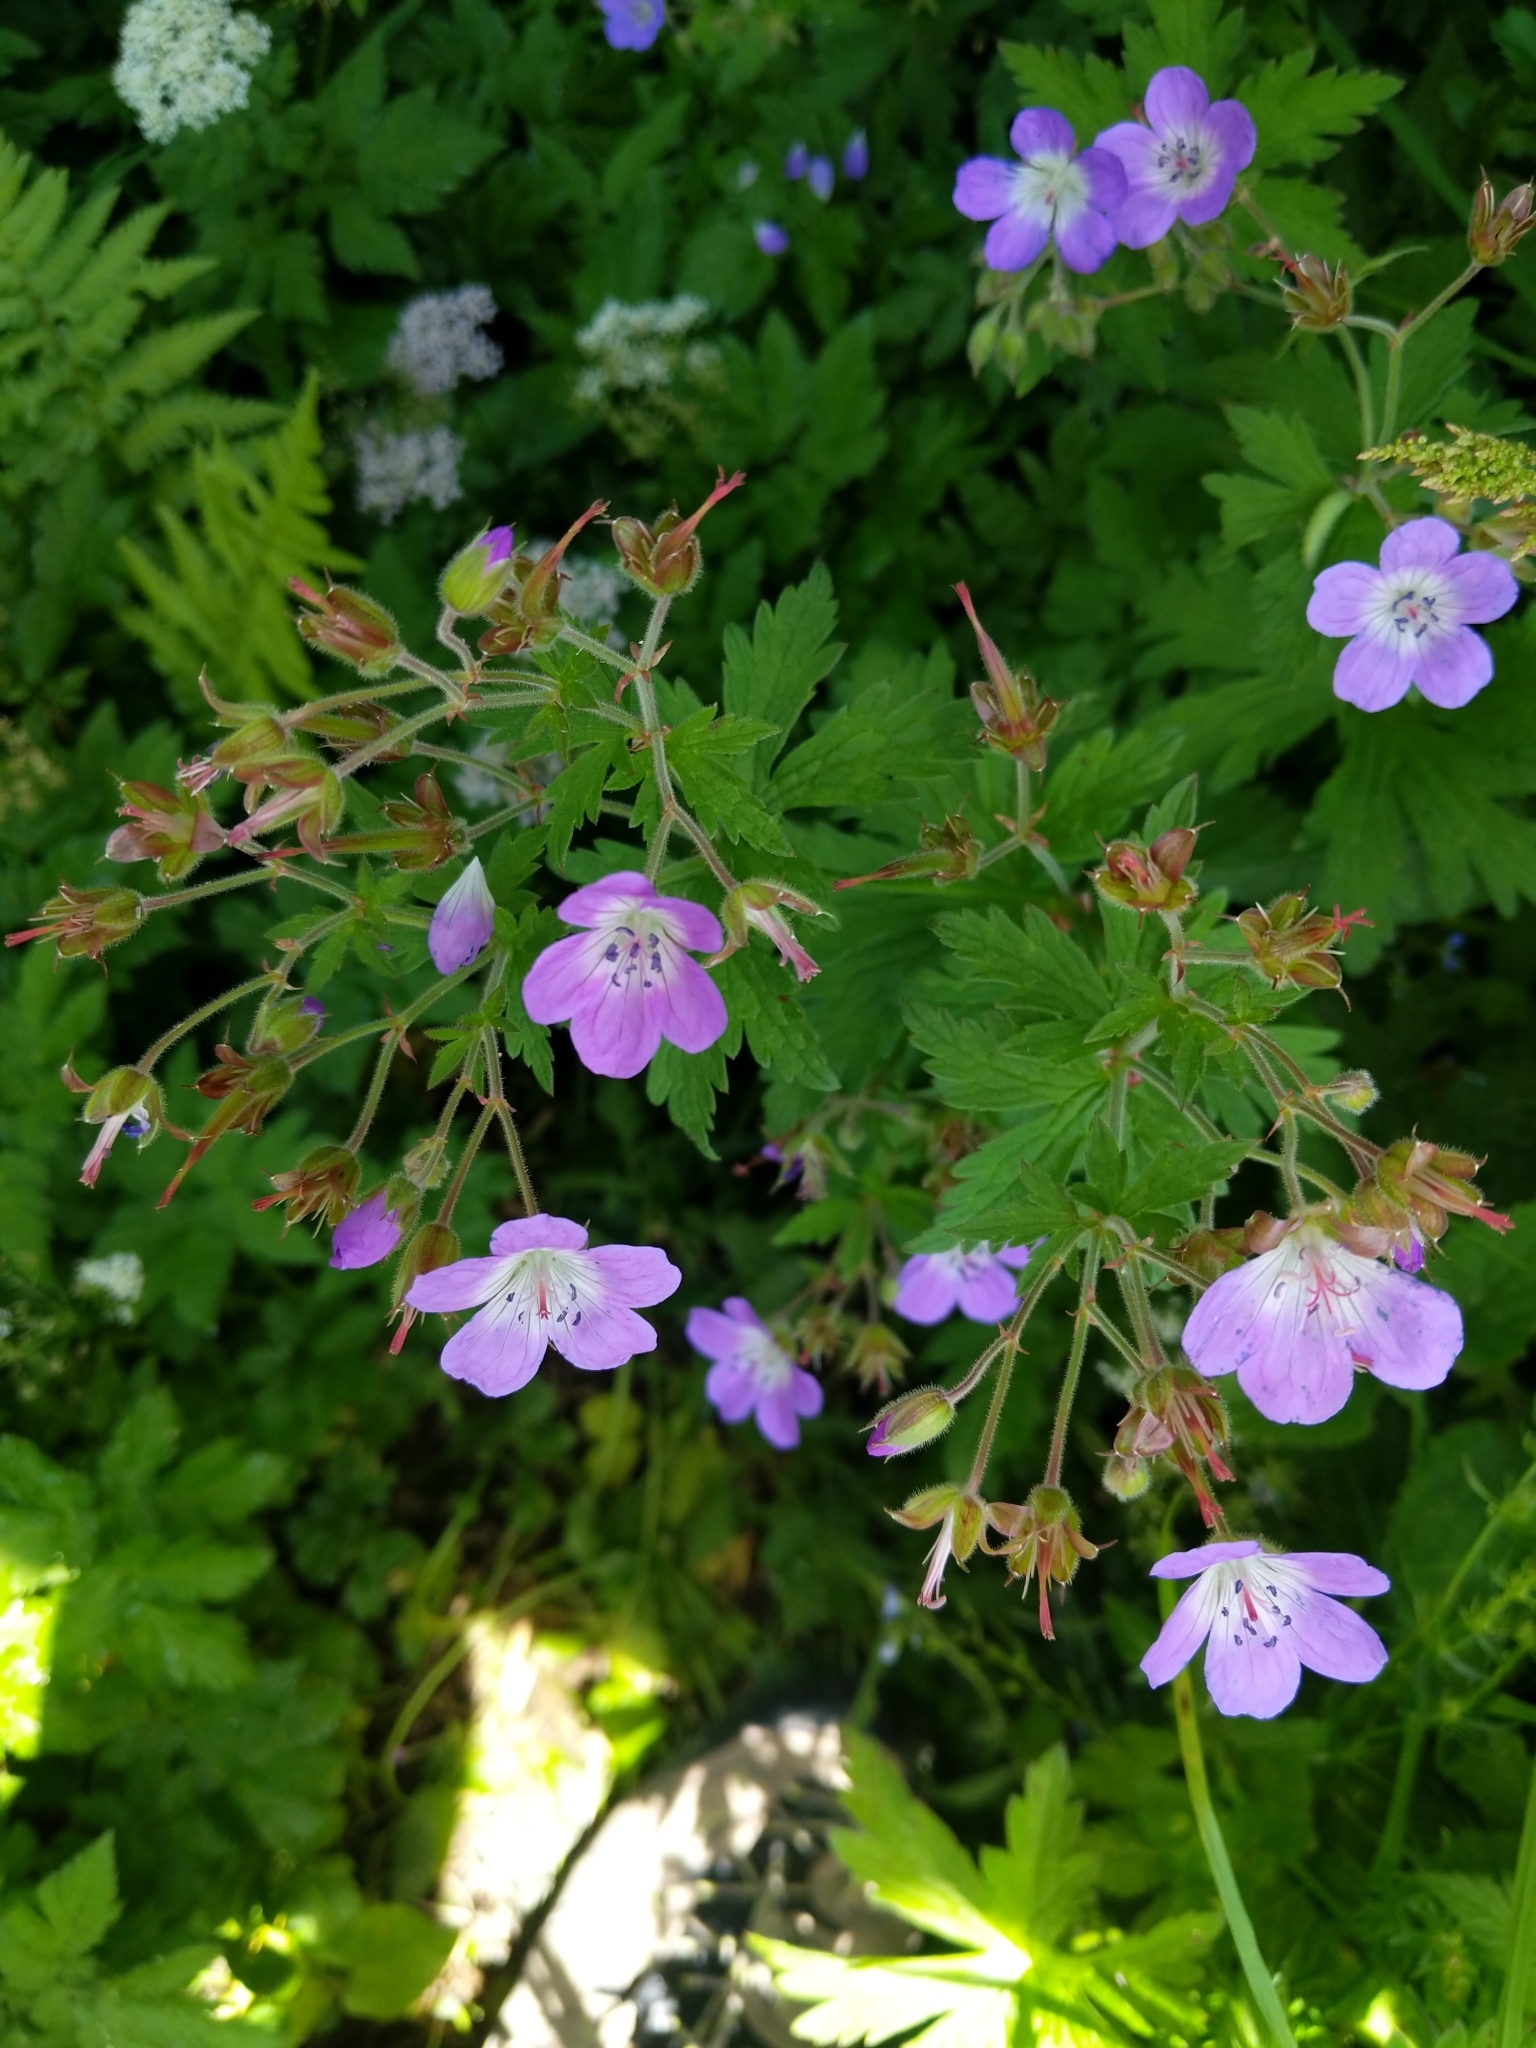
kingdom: Plantae
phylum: Tracheophyta
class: Magnoliopsida
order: Geraniales
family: Geraniaceae
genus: Geranium
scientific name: Geranium sylvaticum
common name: Wood crane's-bill
